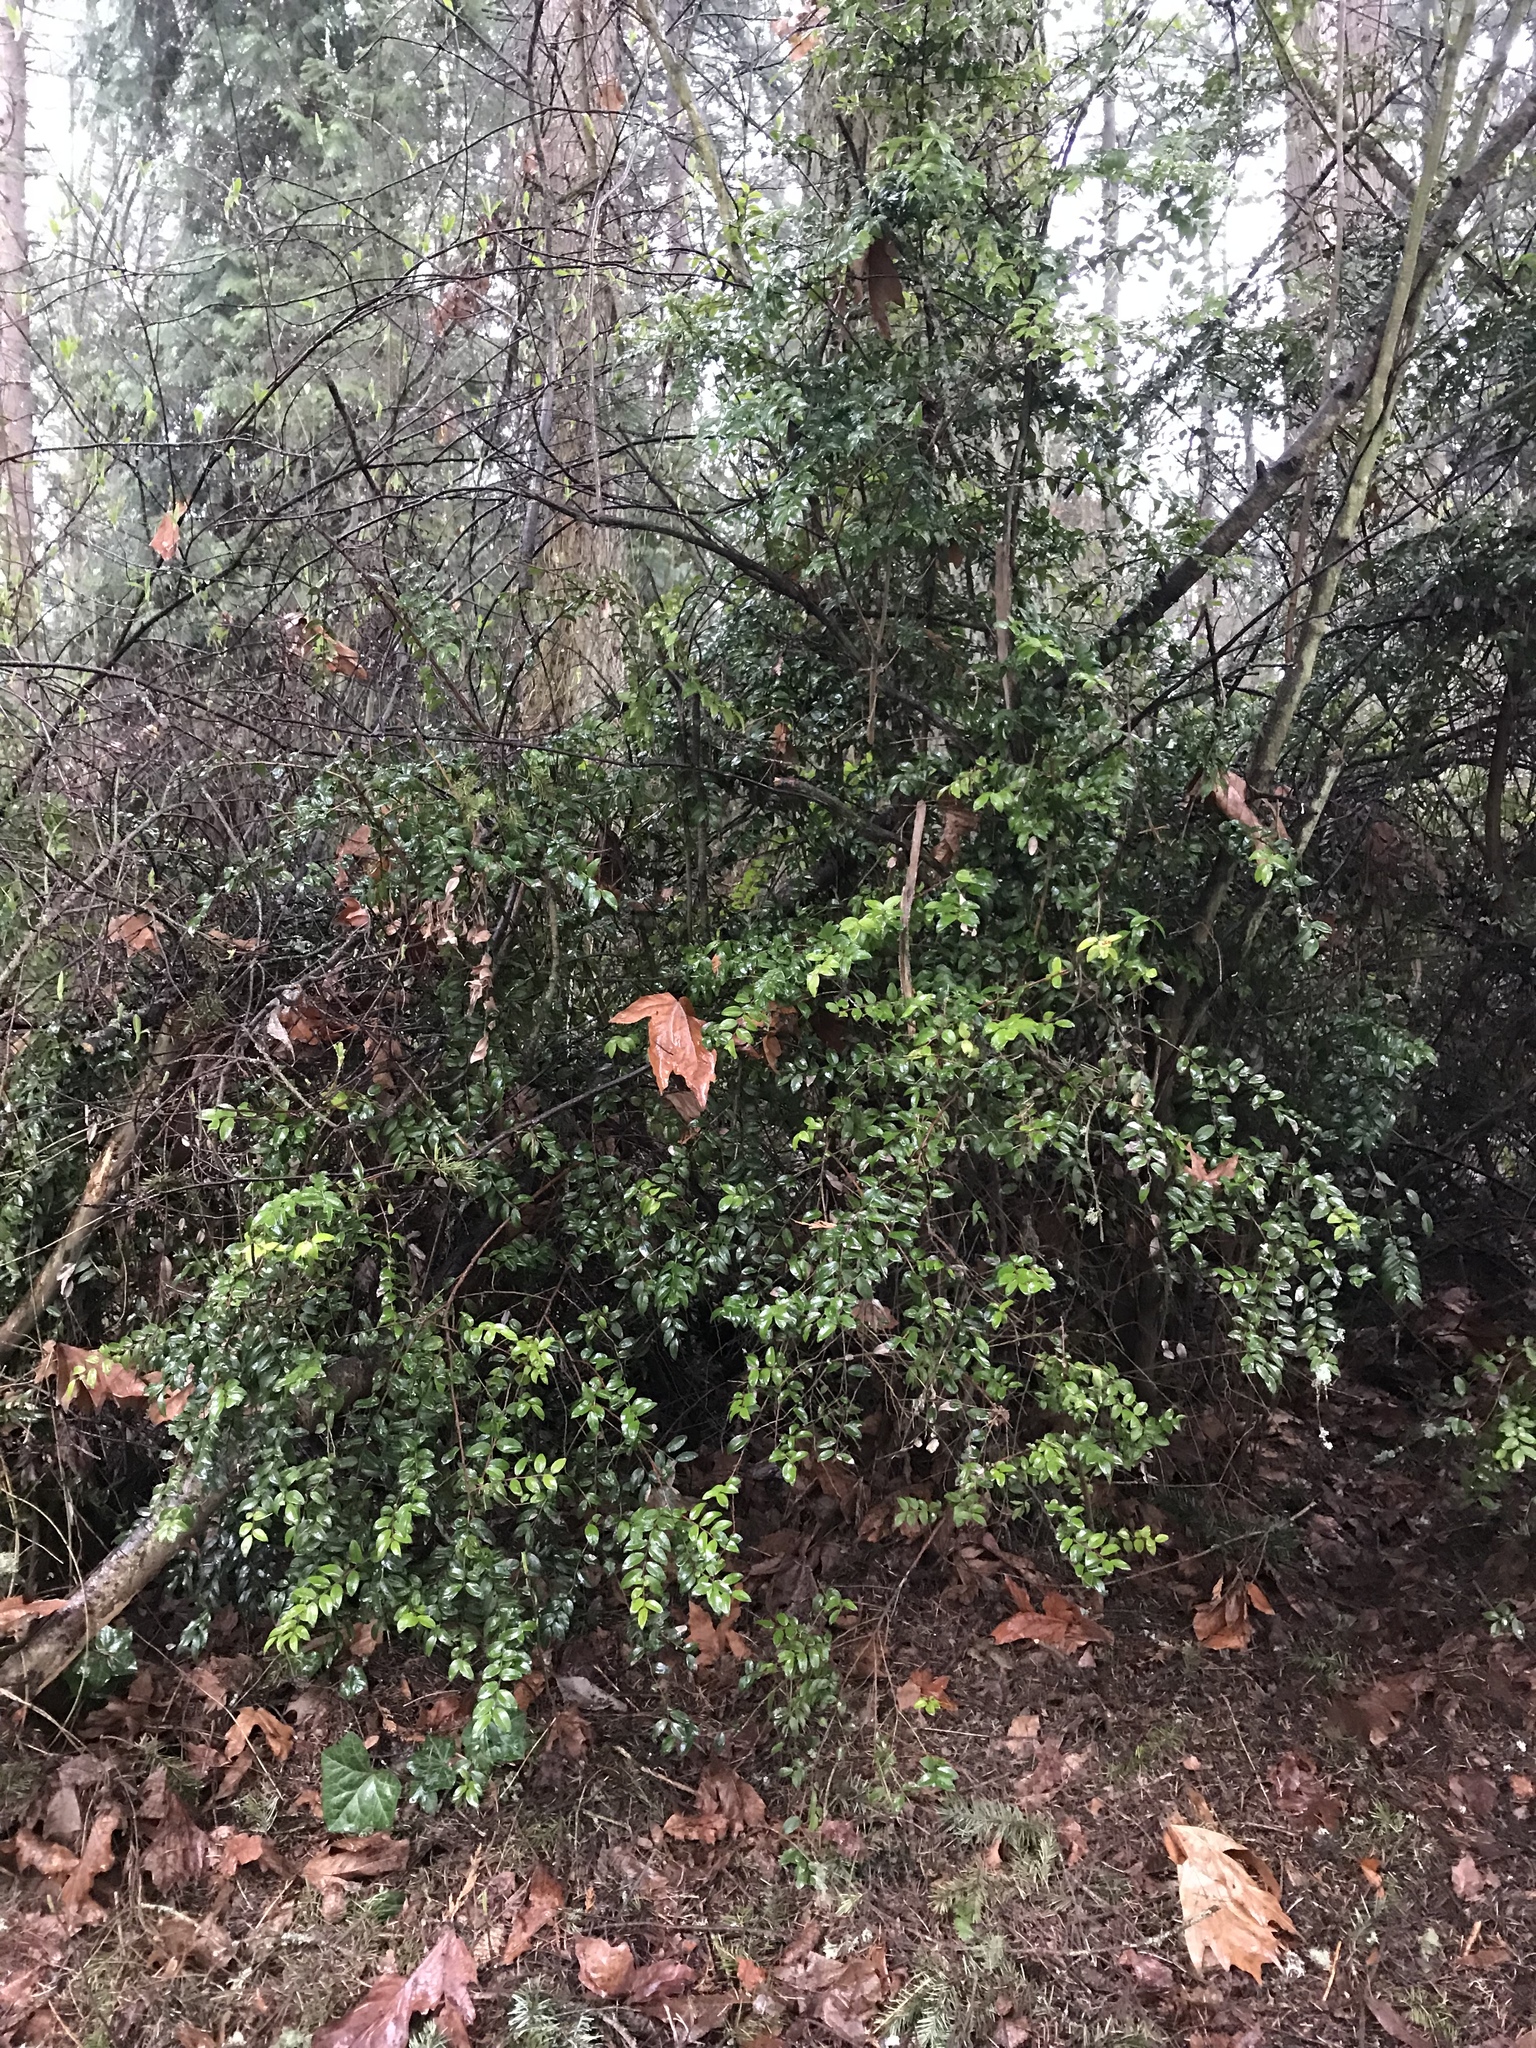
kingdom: Plantae
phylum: Tracheophyta
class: Magnoliopsida
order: Ericales
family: Ericaceae
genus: Vaccinium
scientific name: Vaccinium ovatum
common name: California-huckleberry
